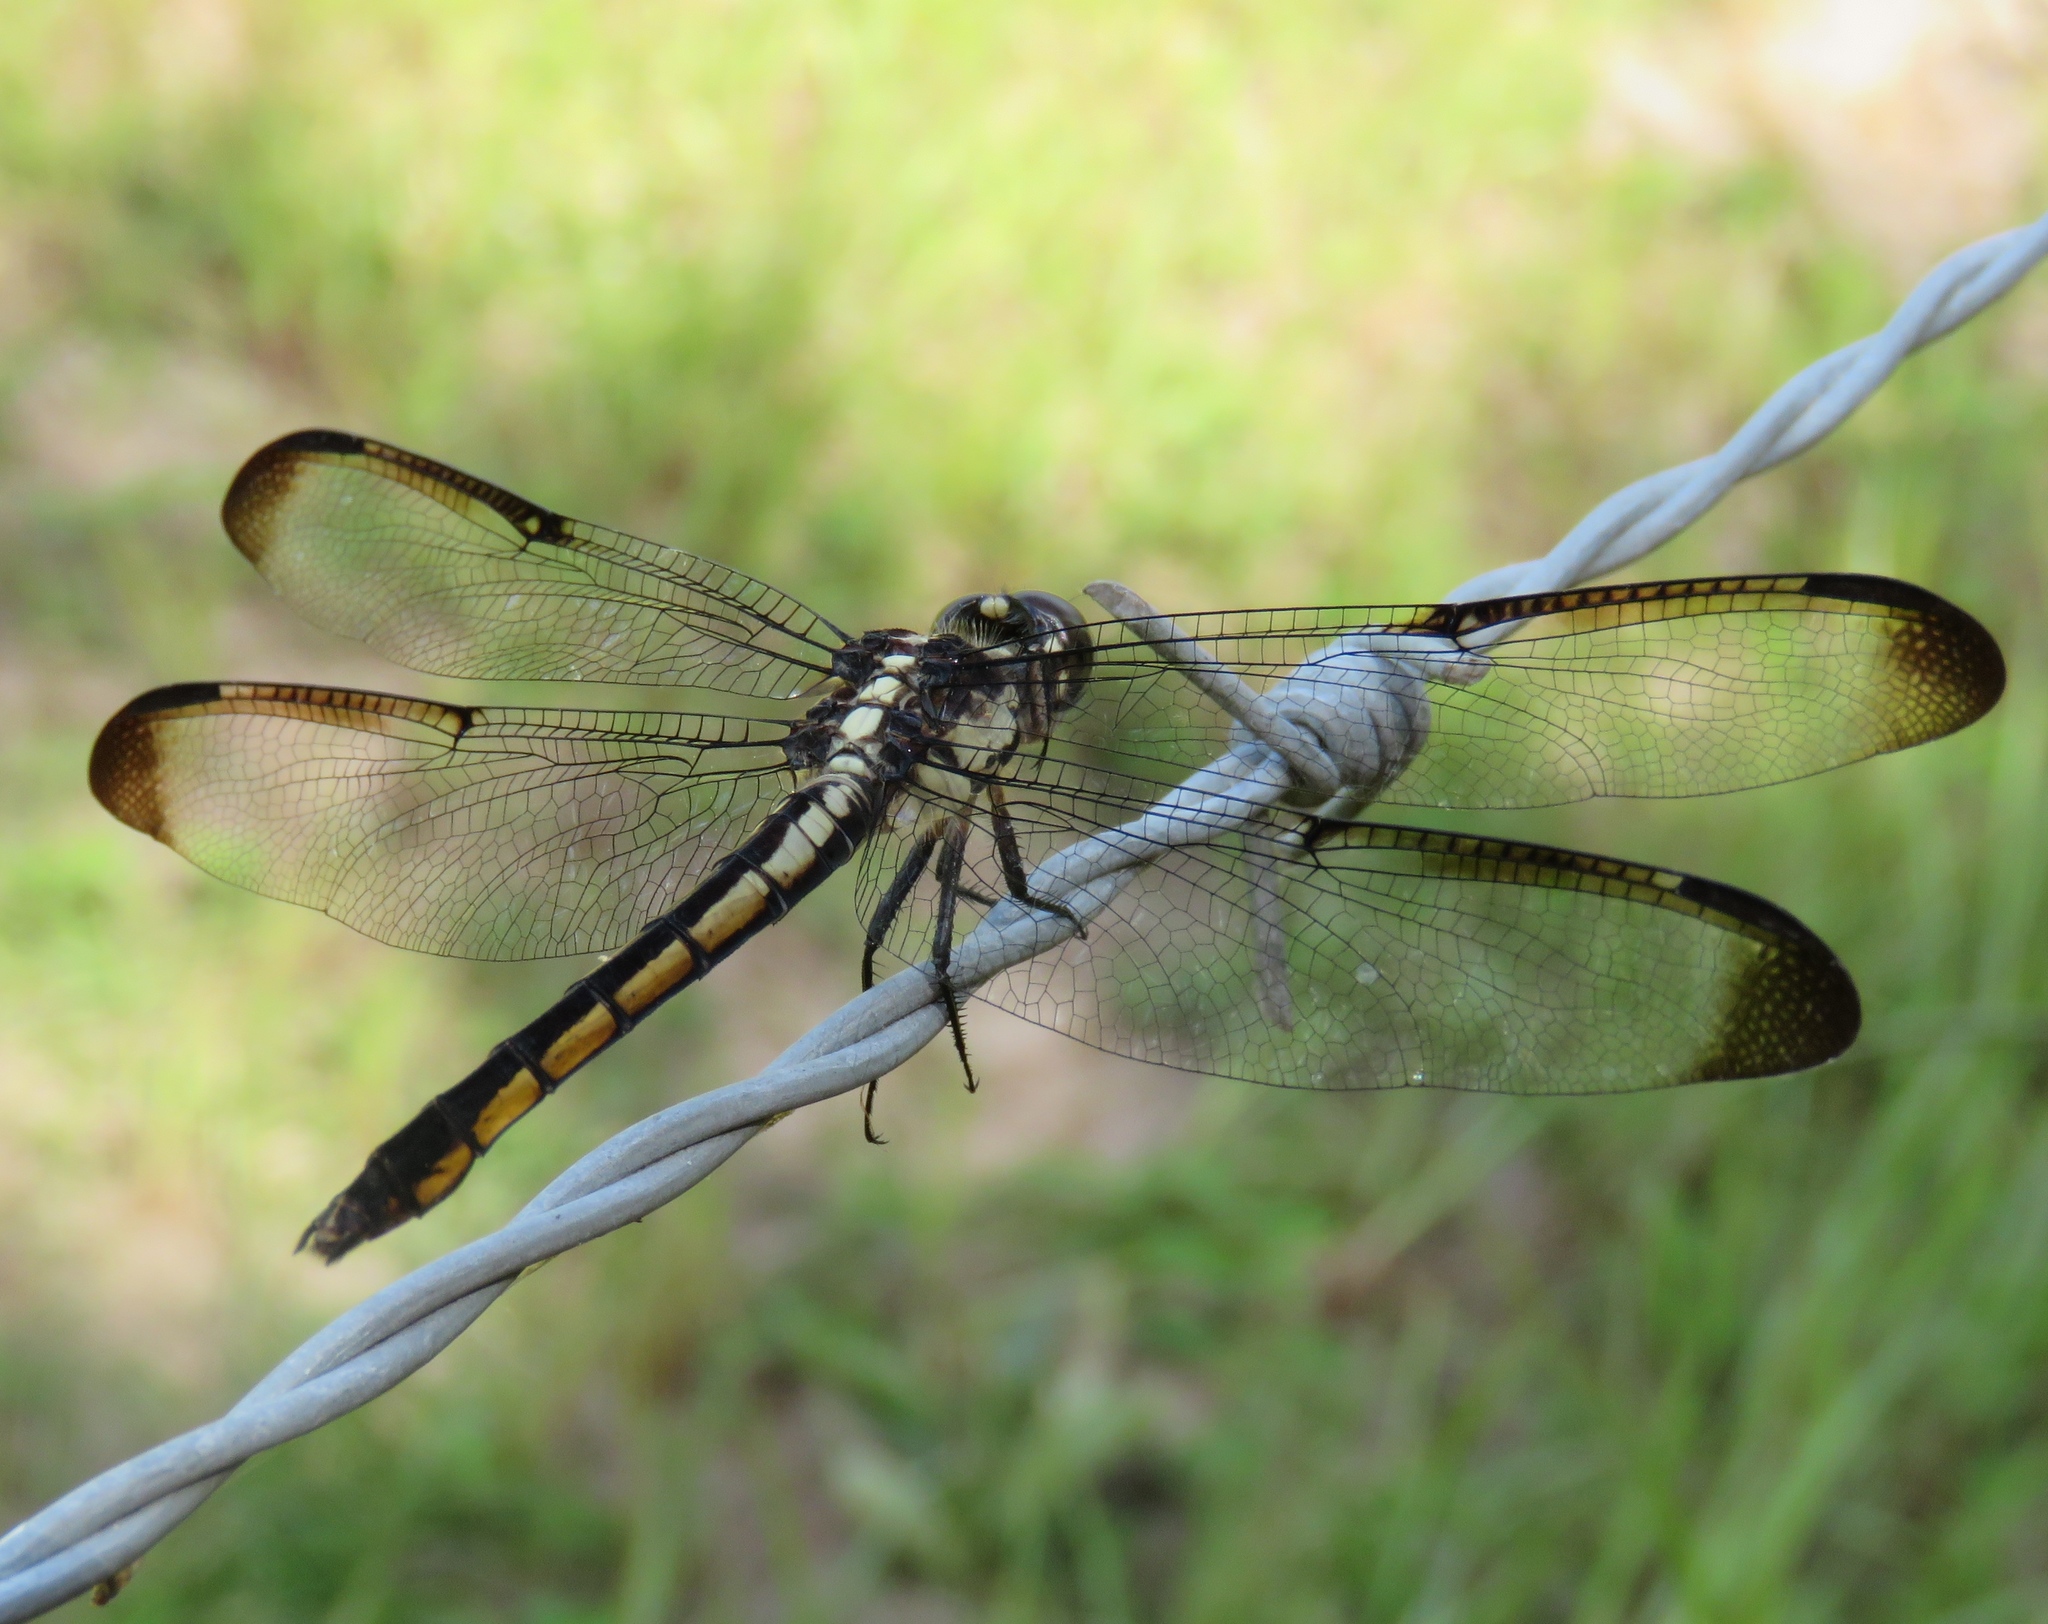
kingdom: Animalia
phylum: Arthropoda
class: Insecta
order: Odonata
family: Libellulidae
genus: Libellula
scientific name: Libellula incesta
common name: Slaty skimmer
